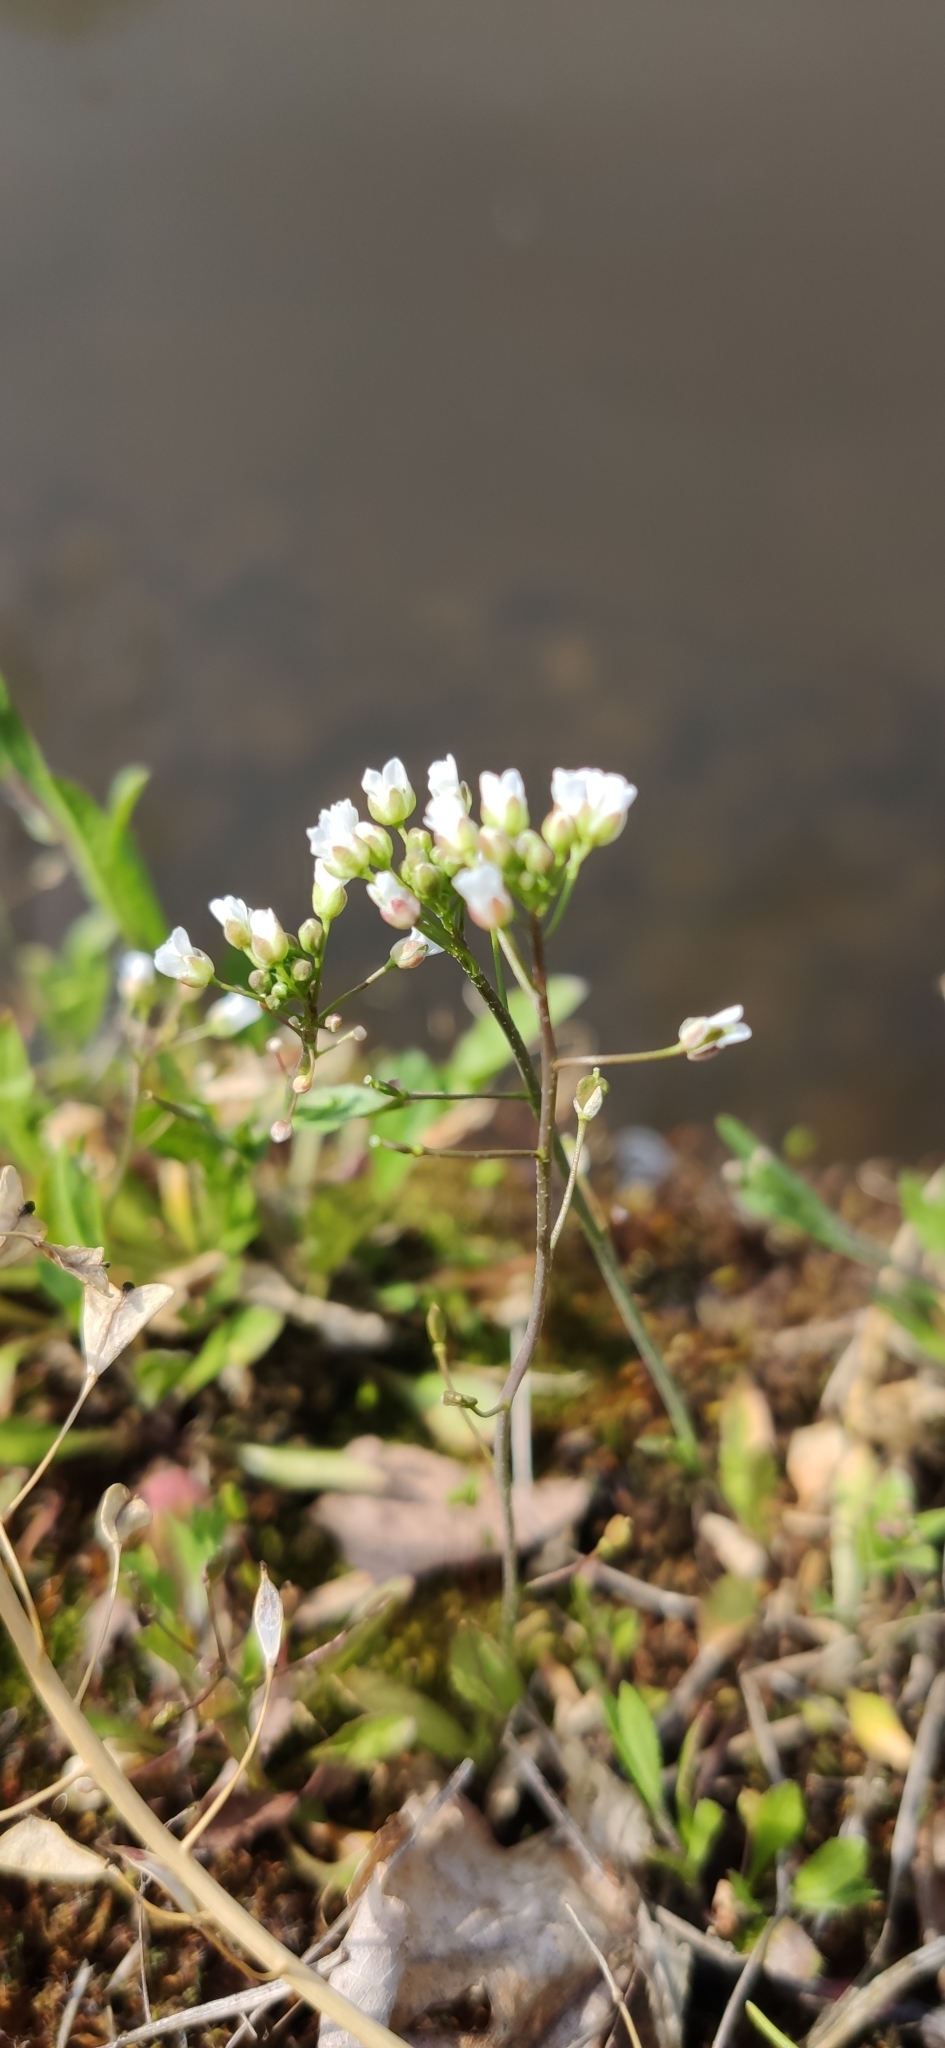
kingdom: Plantae
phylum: Tracheophyta
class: Magnoliopsida
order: Brassicales
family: Brassicaceae
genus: Capsella
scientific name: Capsella bursa-pastoris
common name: Shepherd's purse
